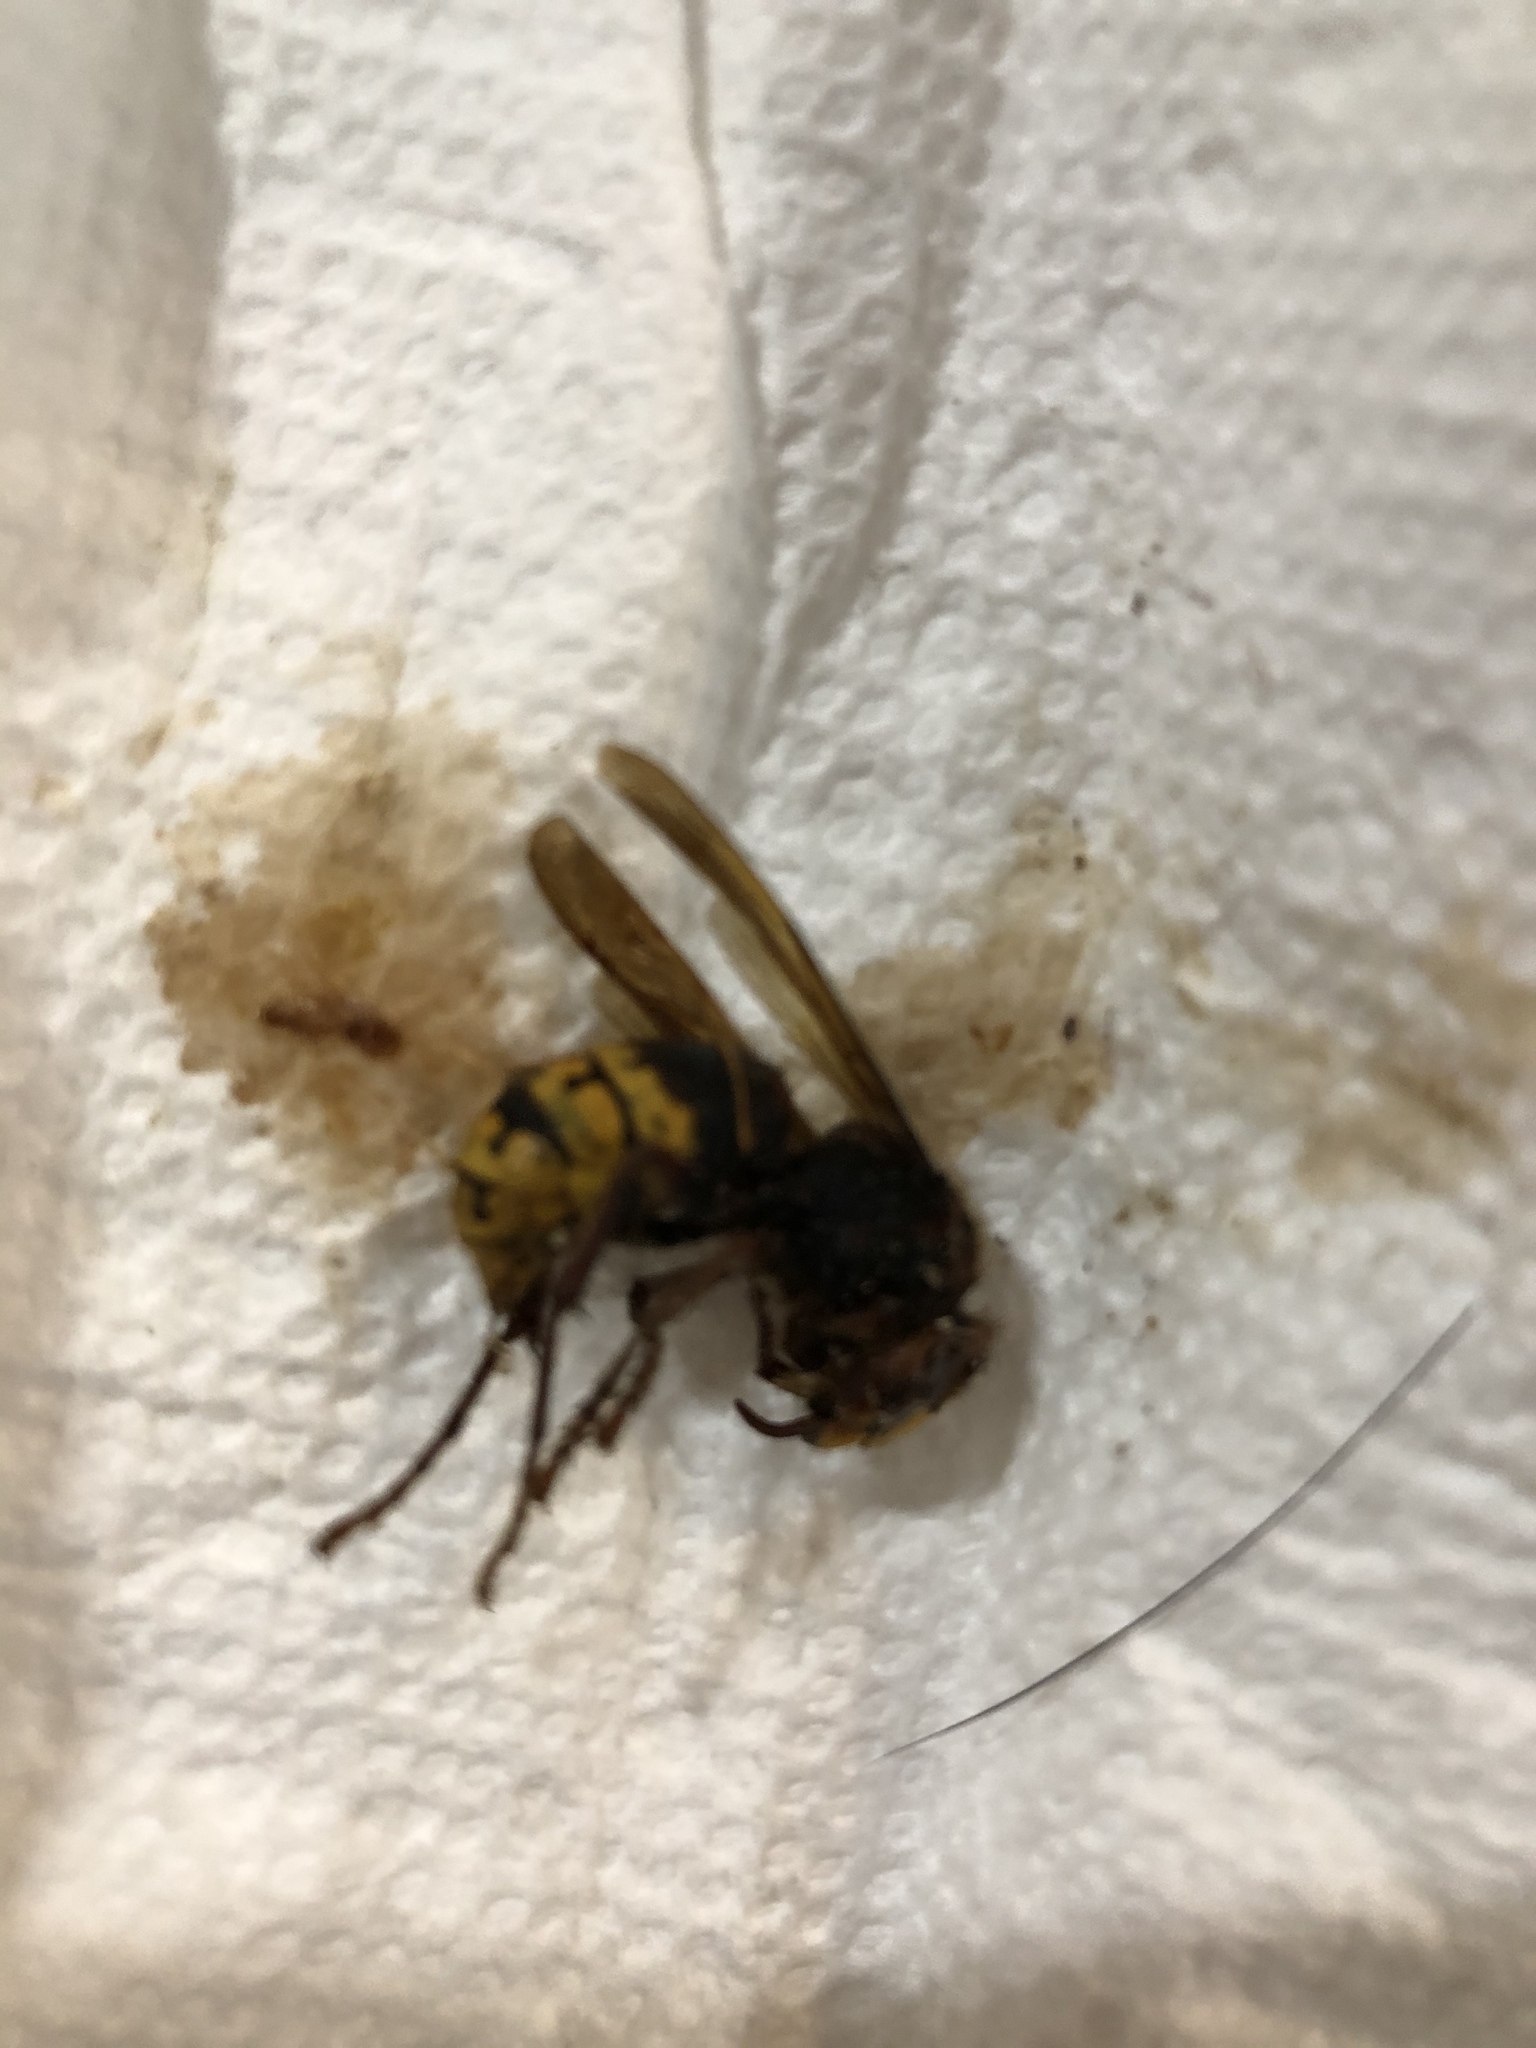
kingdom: Animalia
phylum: Arthropoda
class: Insecta
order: Hymenoptera
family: Vespidae
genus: Vespa
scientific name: Vespa crabro
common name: Hornet
